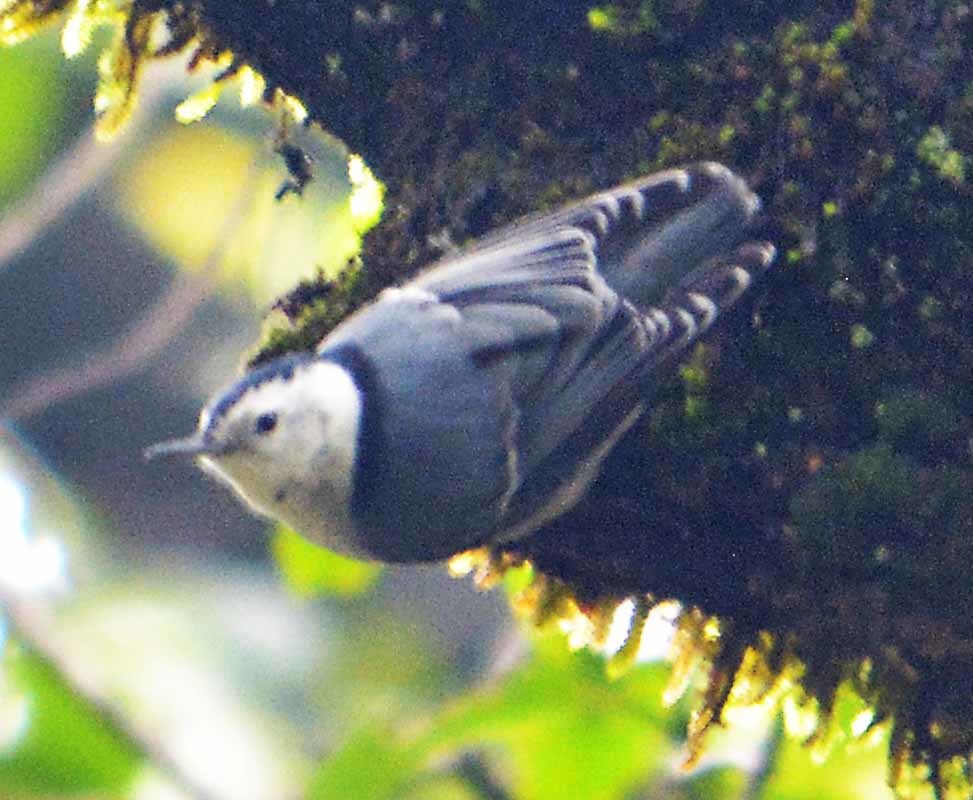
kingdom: Animalia
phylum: Chordata
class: Aves
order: Passeriformes
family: Sittidae
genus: Sitta
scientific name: Sitta carolinensis
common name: White-breasted nuthatch
